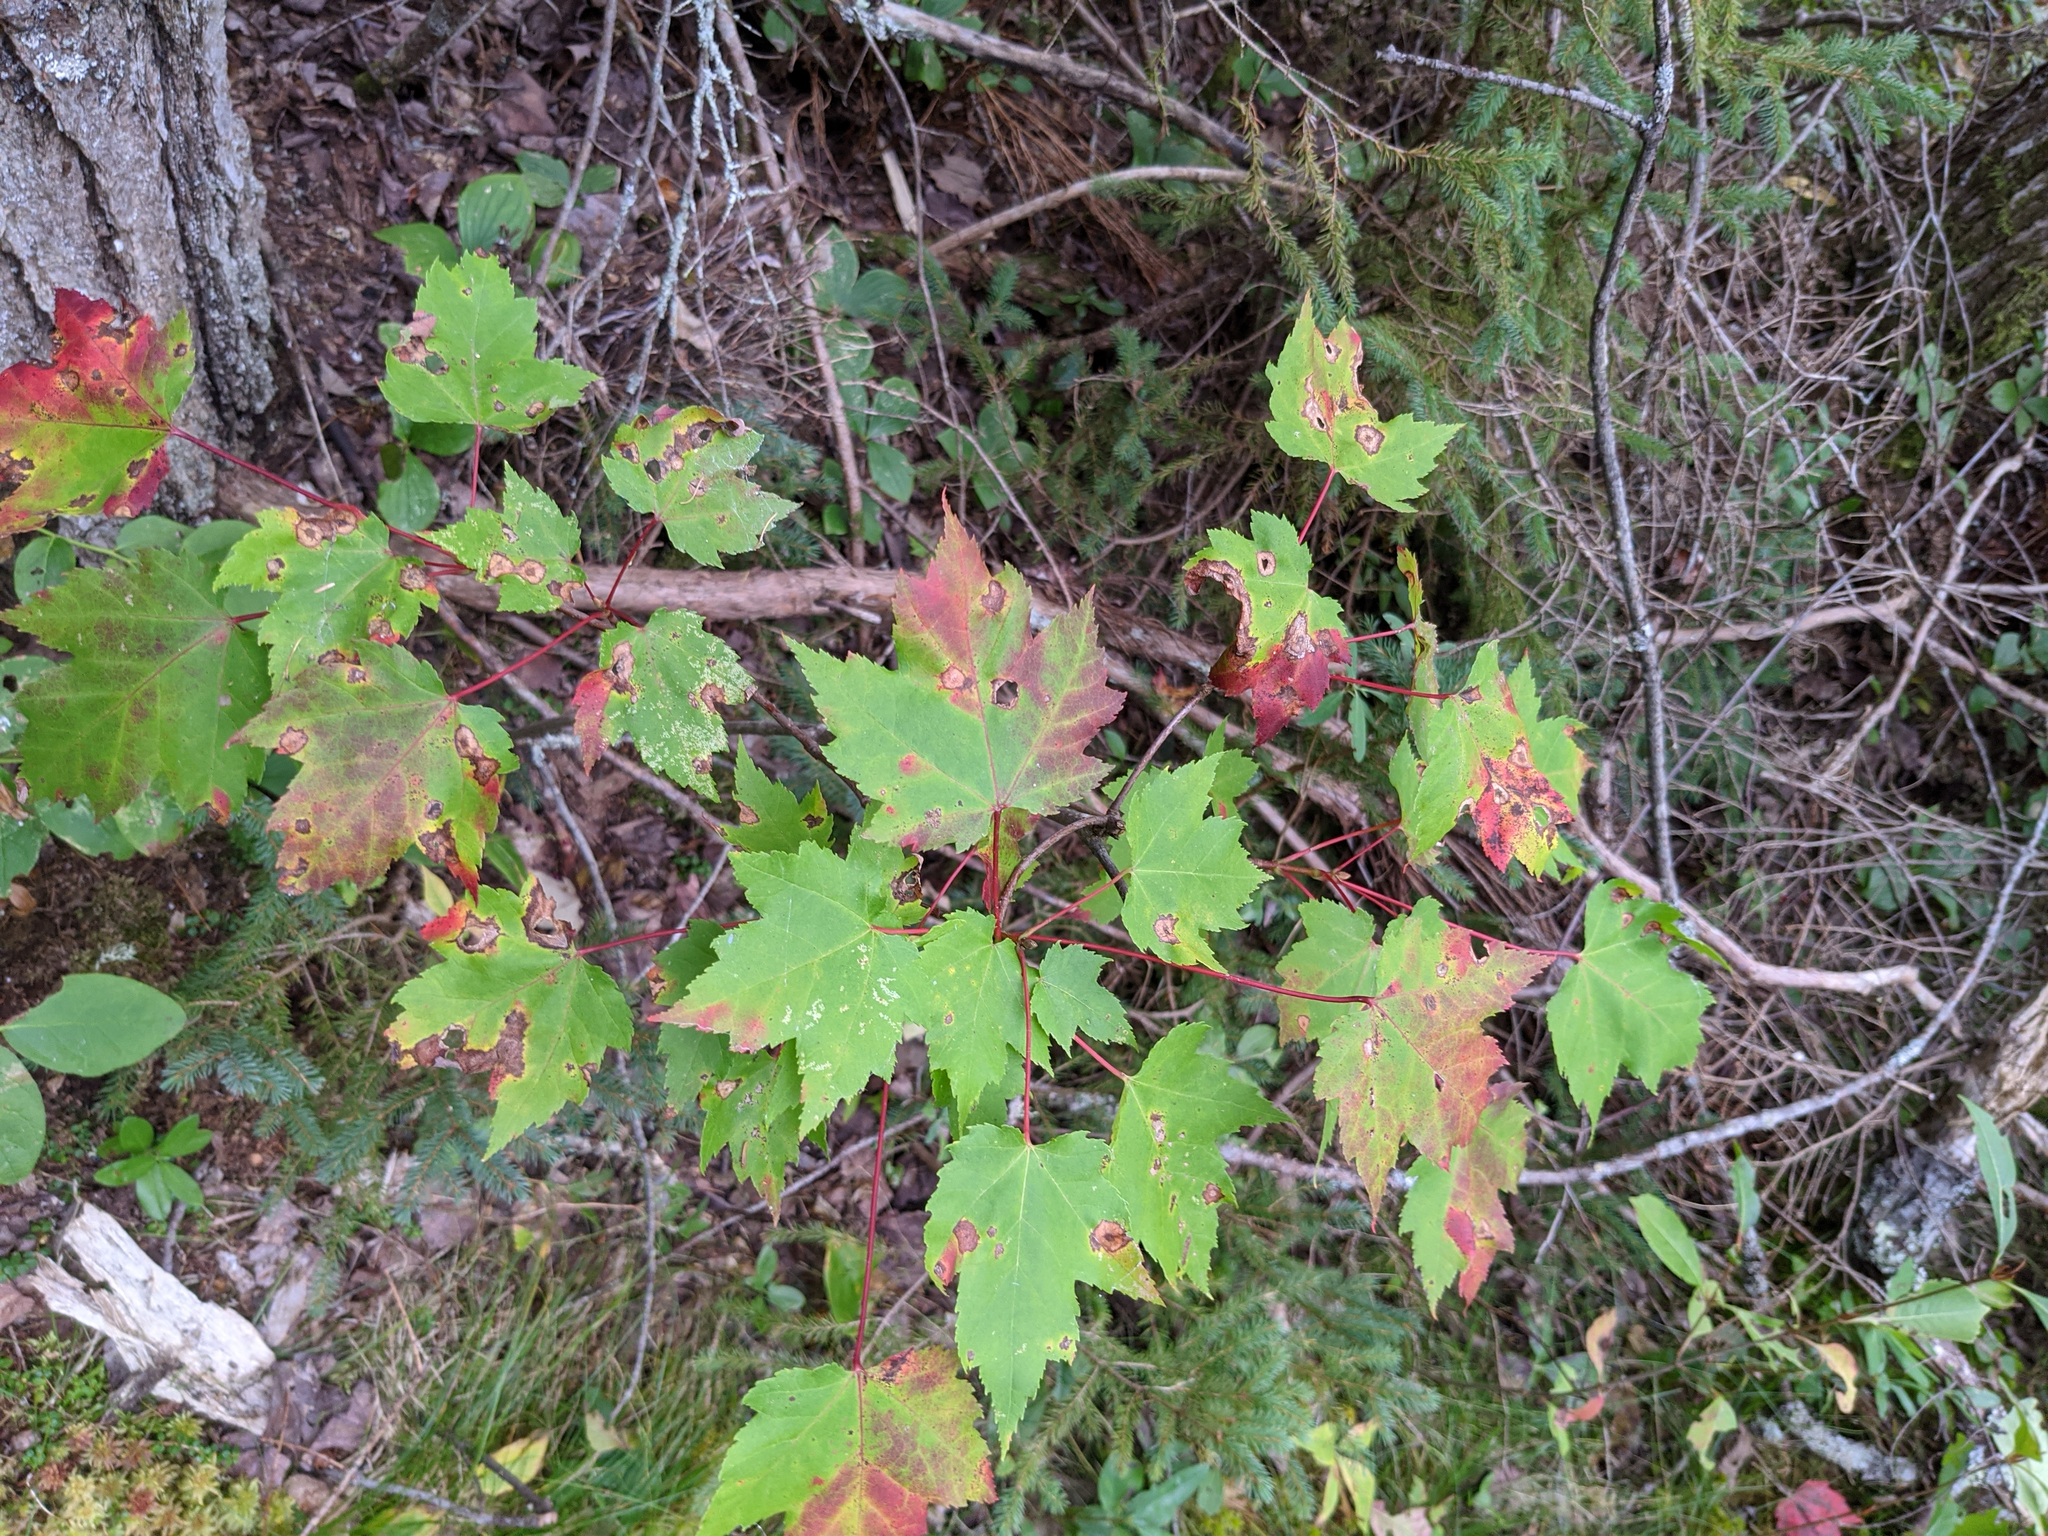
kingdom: Plantae
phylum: Tracheophyta
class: Magnoliopsida
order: Sapindales
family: Sapindaceae
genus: Acer
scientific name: Acer rubrum
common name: Red maple
